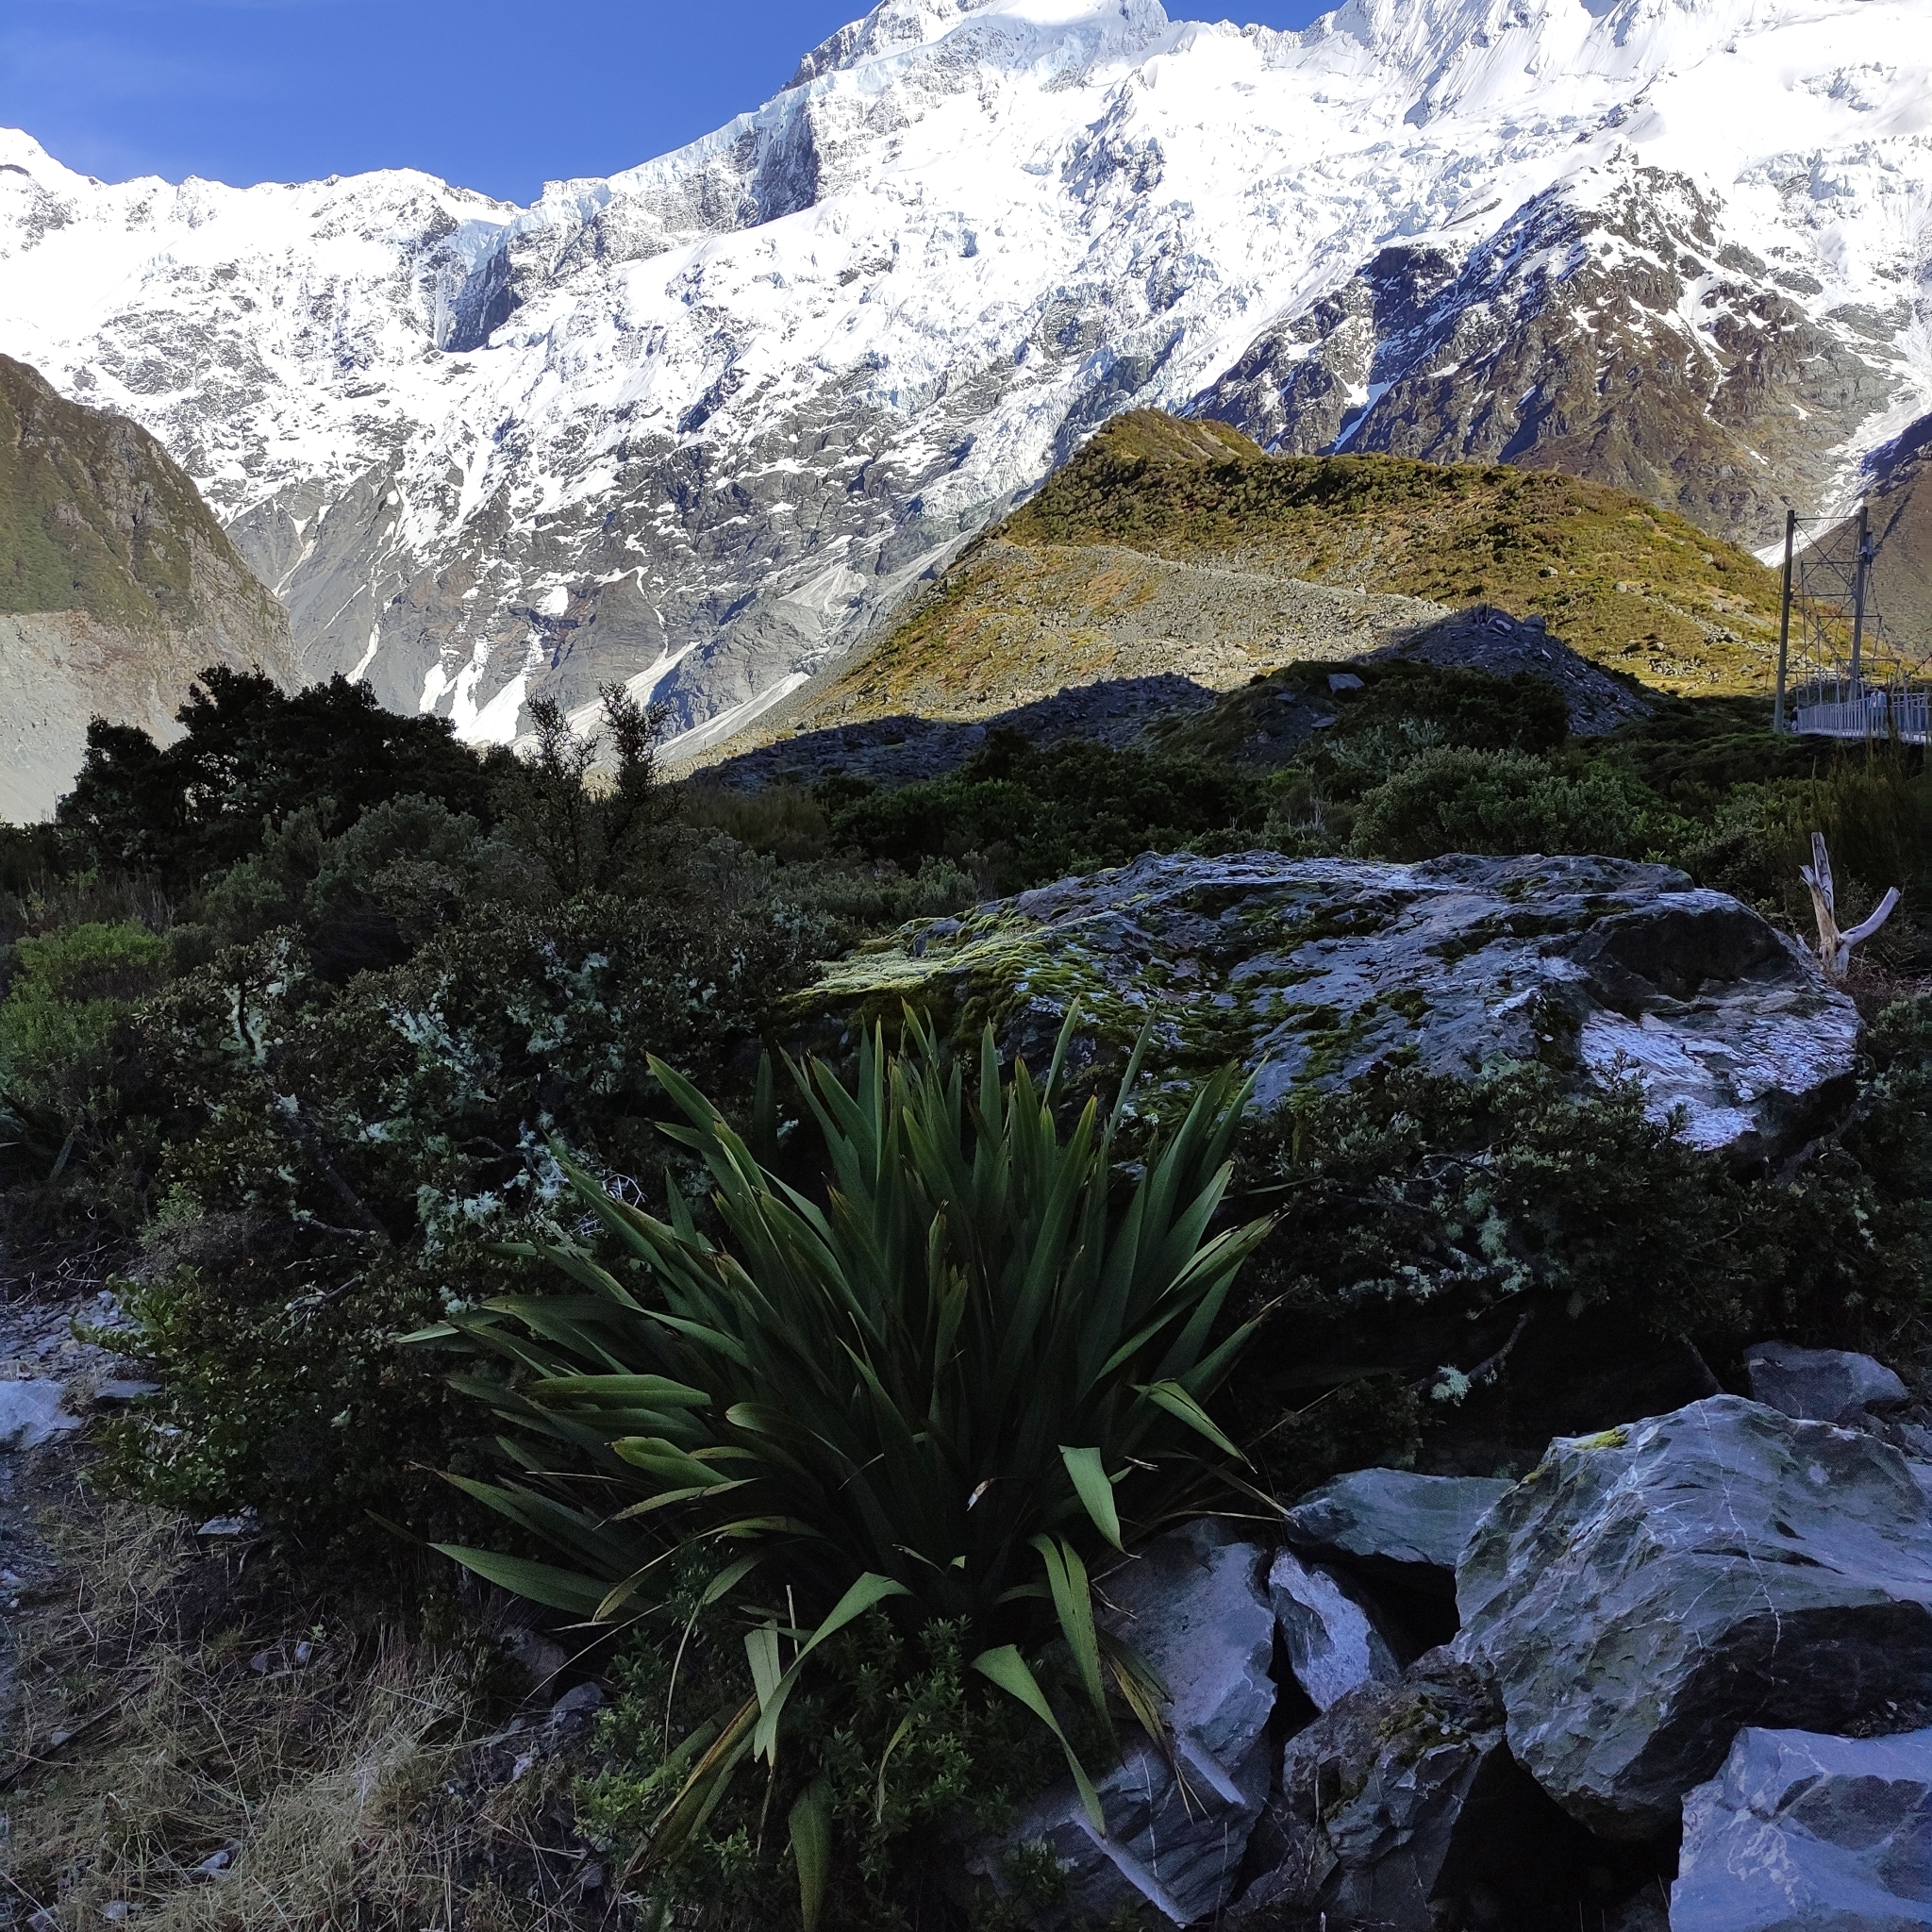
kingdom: Plantae
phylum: Tracheophyta
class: Liliopsida
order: Asparagales
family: Asphodelaceae
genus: Phormium
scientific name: Phormium colensoi
